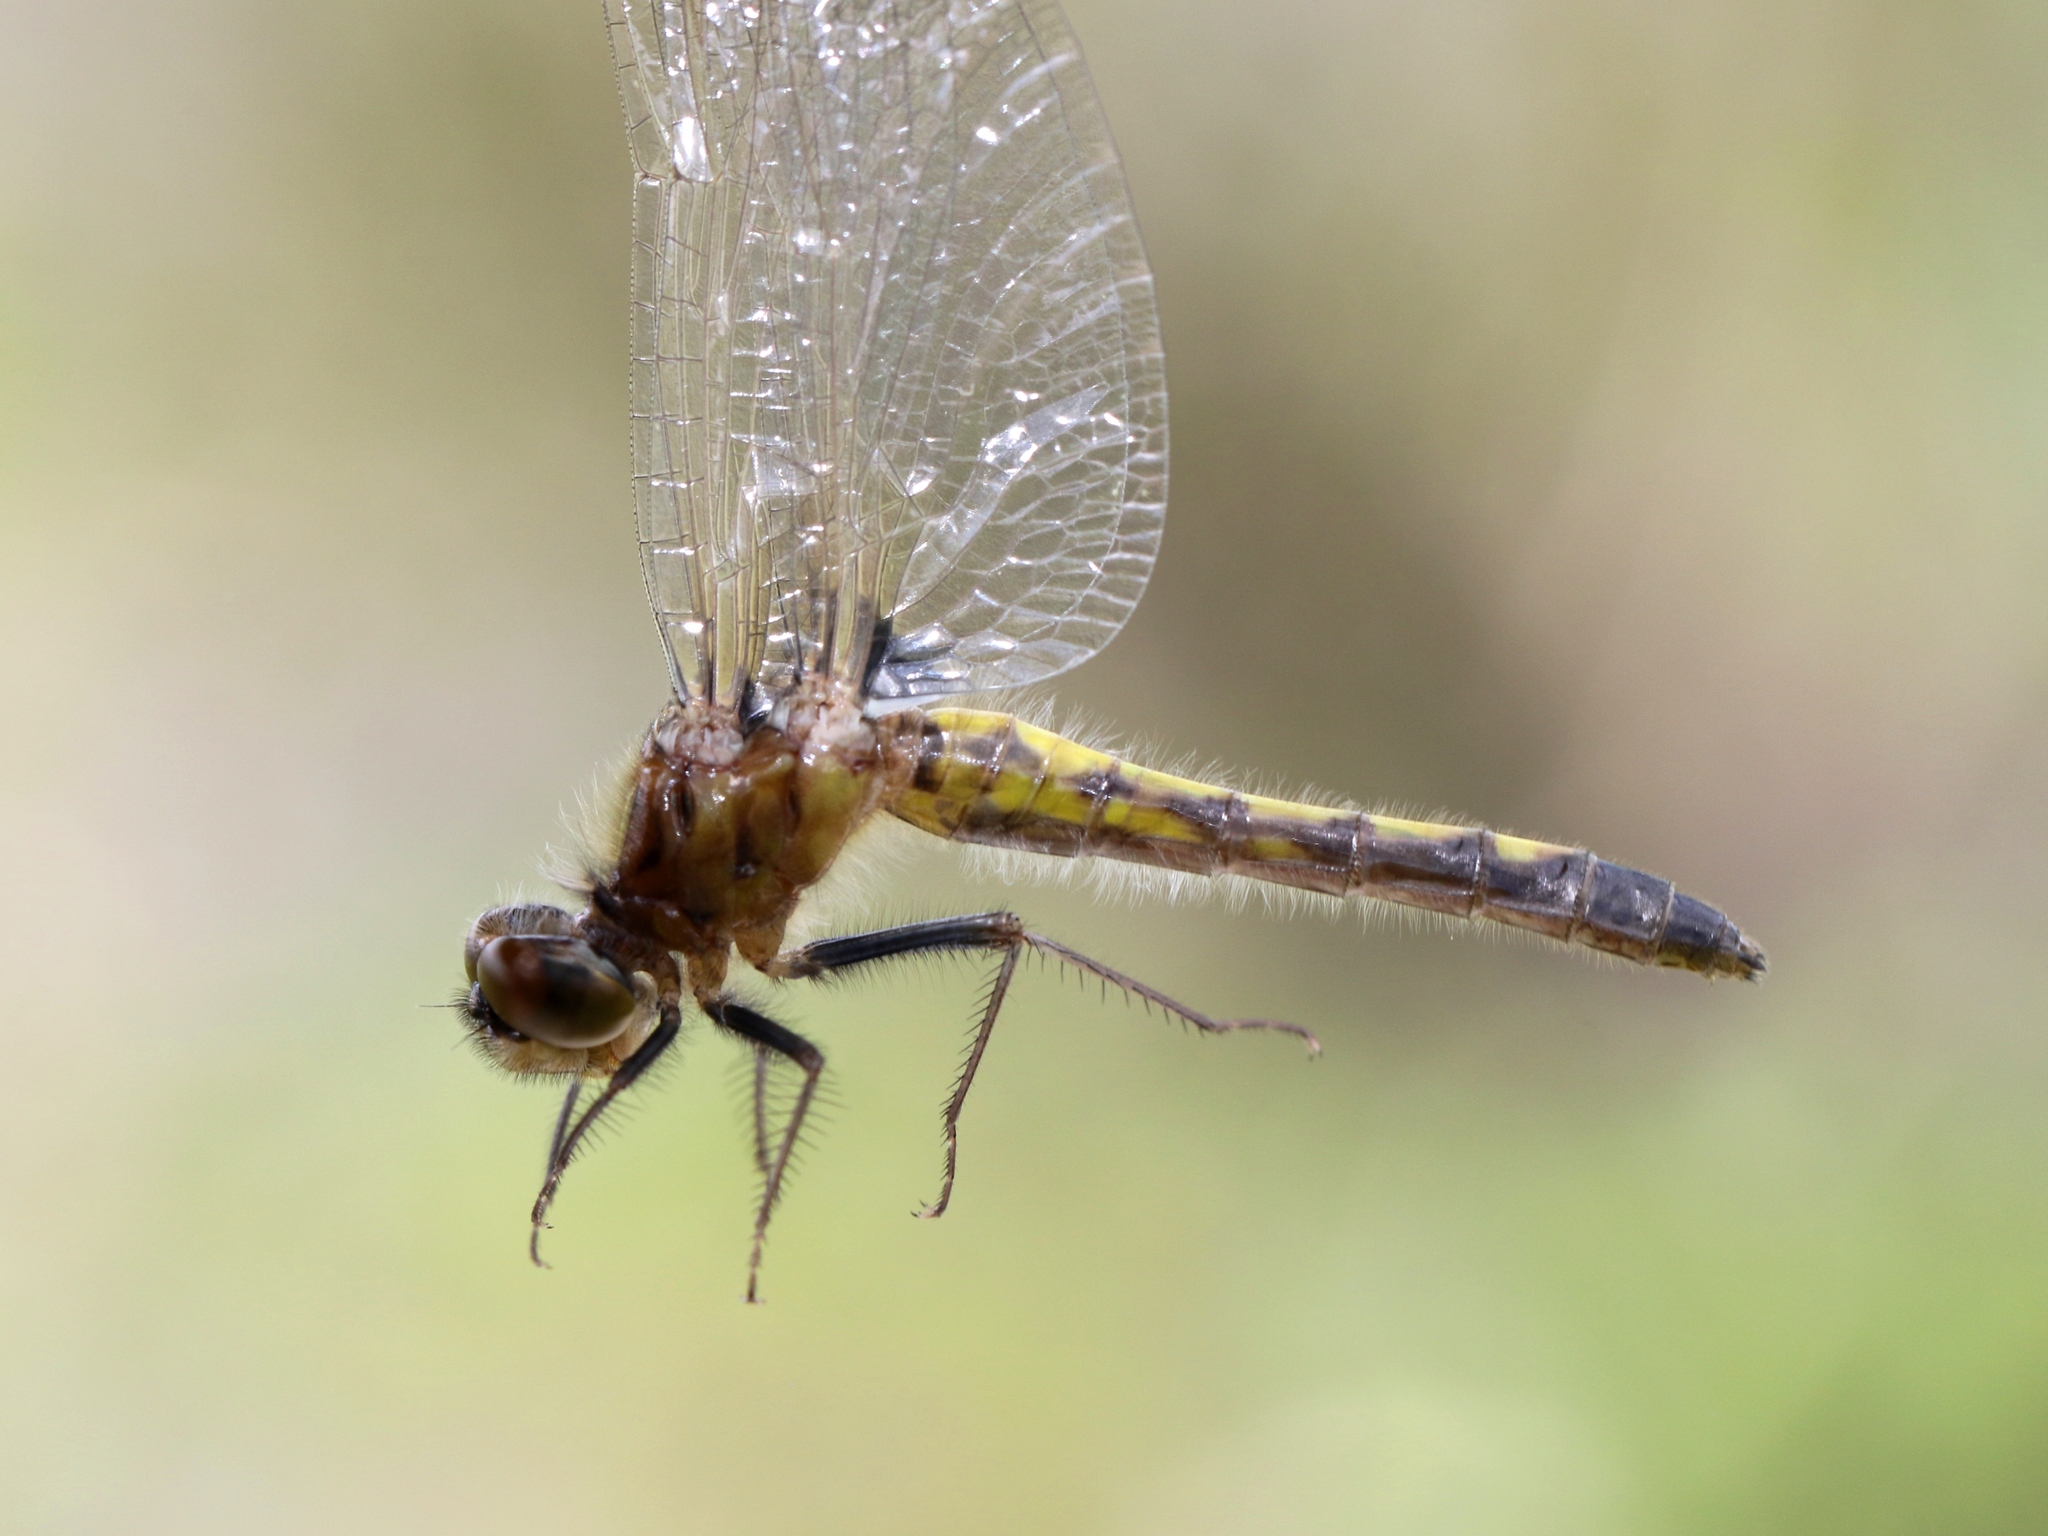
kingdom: Animalia
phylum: Arthropoda
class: Insecta
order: Odonata
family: Libellulidae
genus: Leucorrhinia
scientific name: Leucorrhinia intacta
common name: Dot-tailed whiteface
